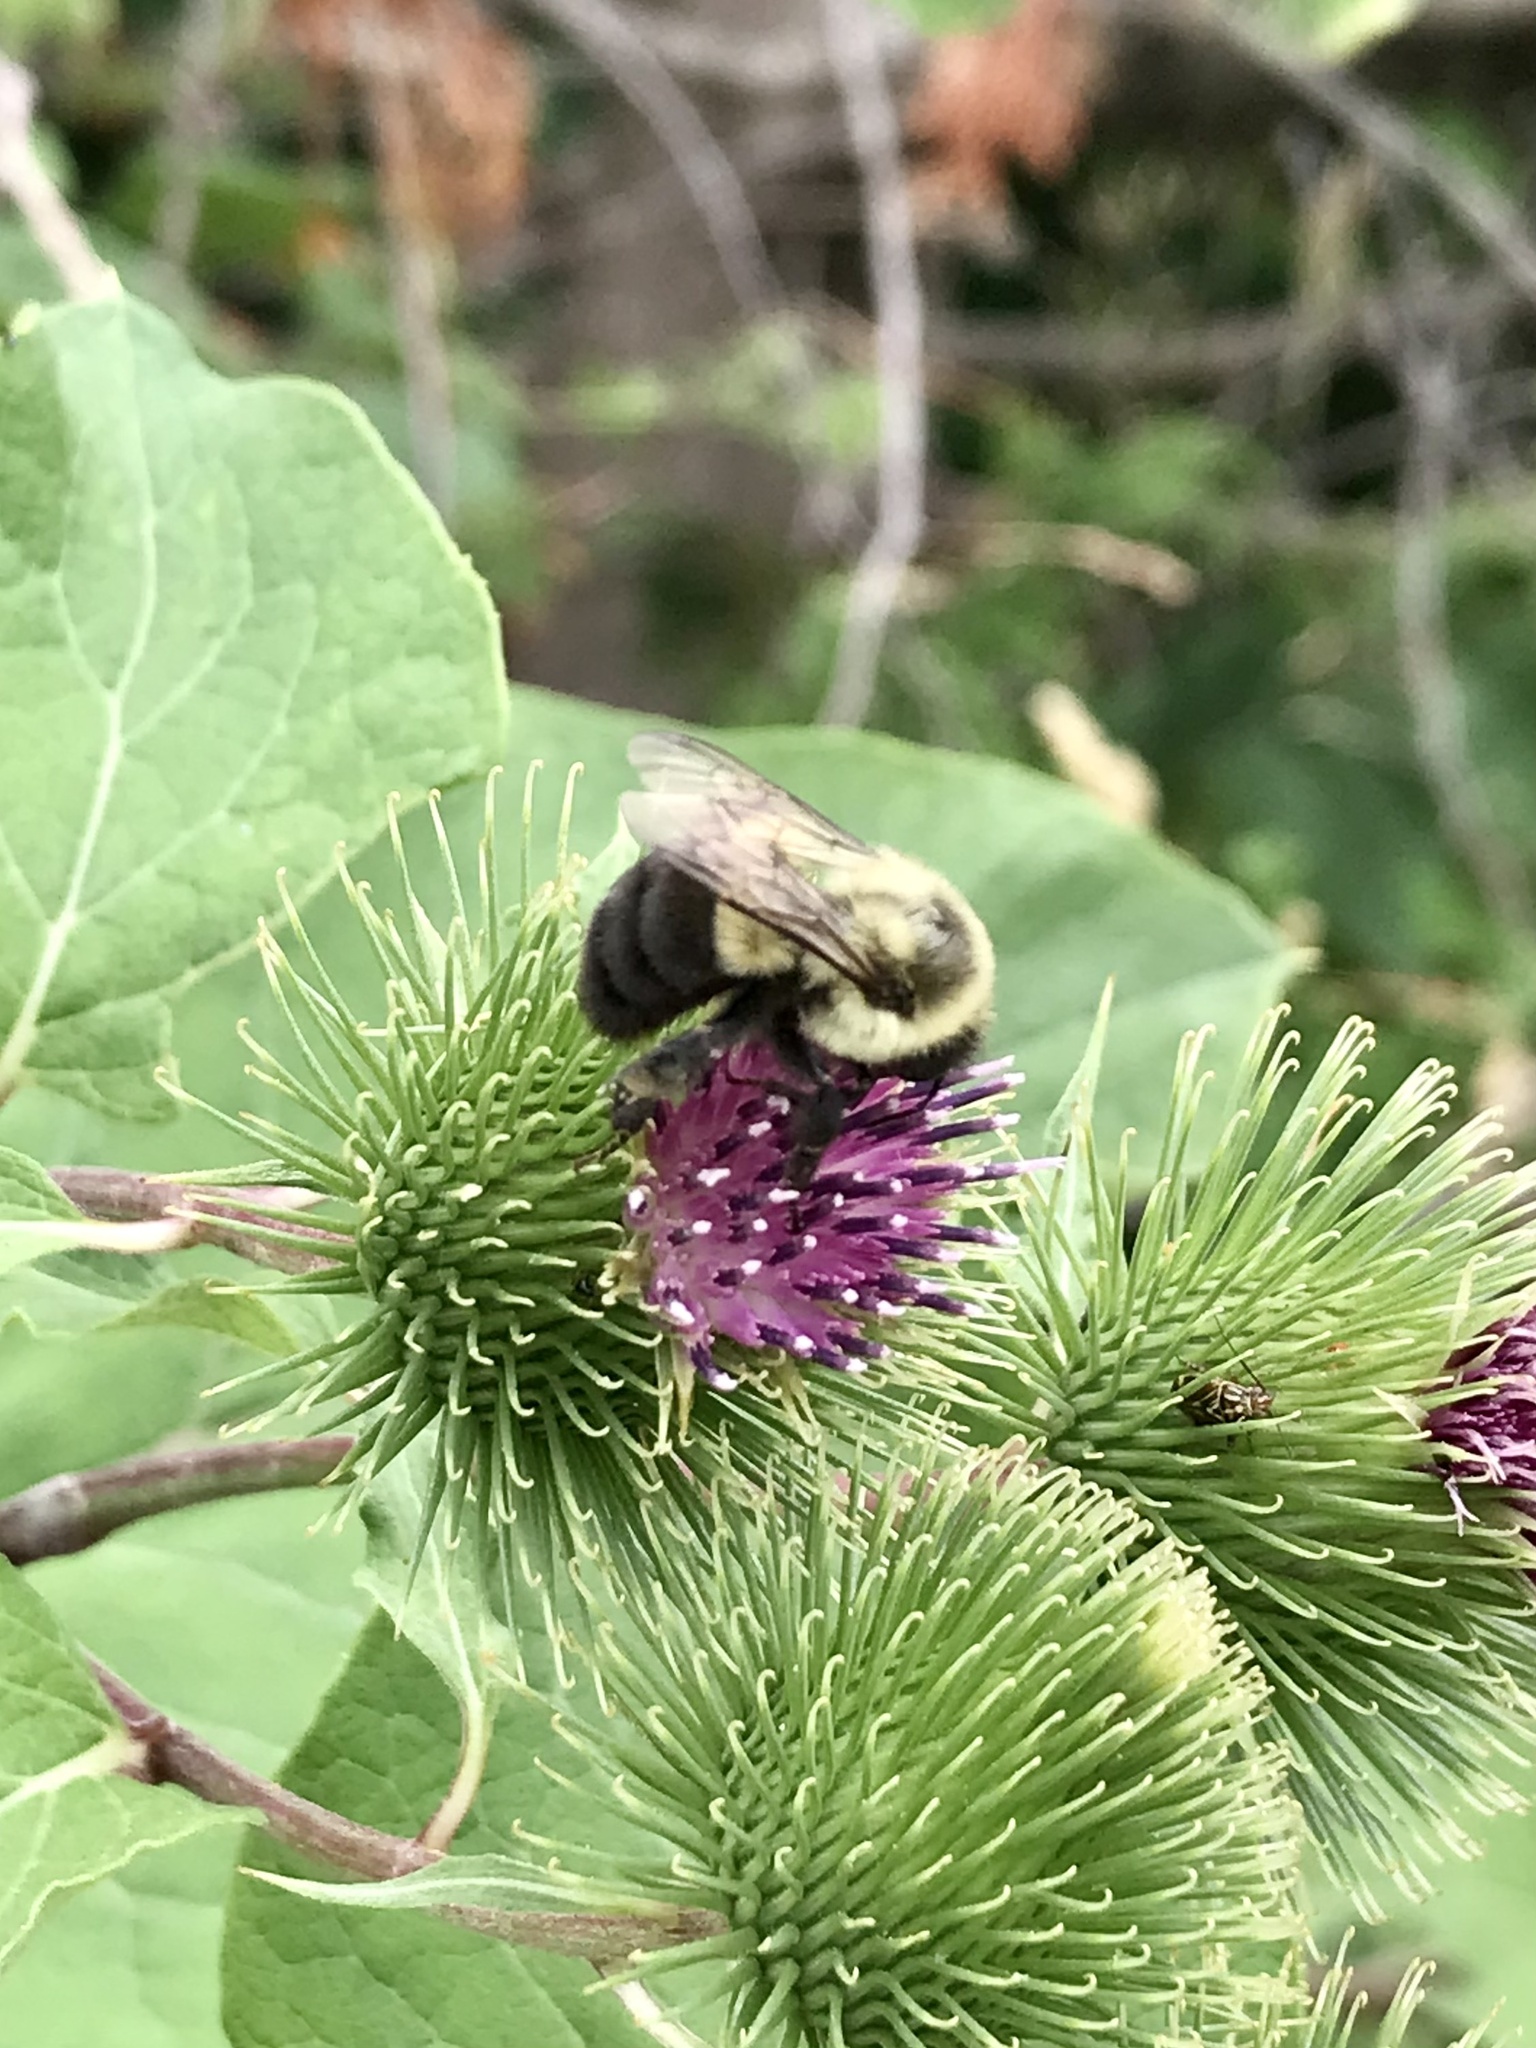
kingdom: Animalia
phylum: Arthropoda
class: Insecta
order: Hymenoptera
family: Apidae
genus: Bombus
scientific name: Bombus impatiens
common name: Common eastern bumble bee
